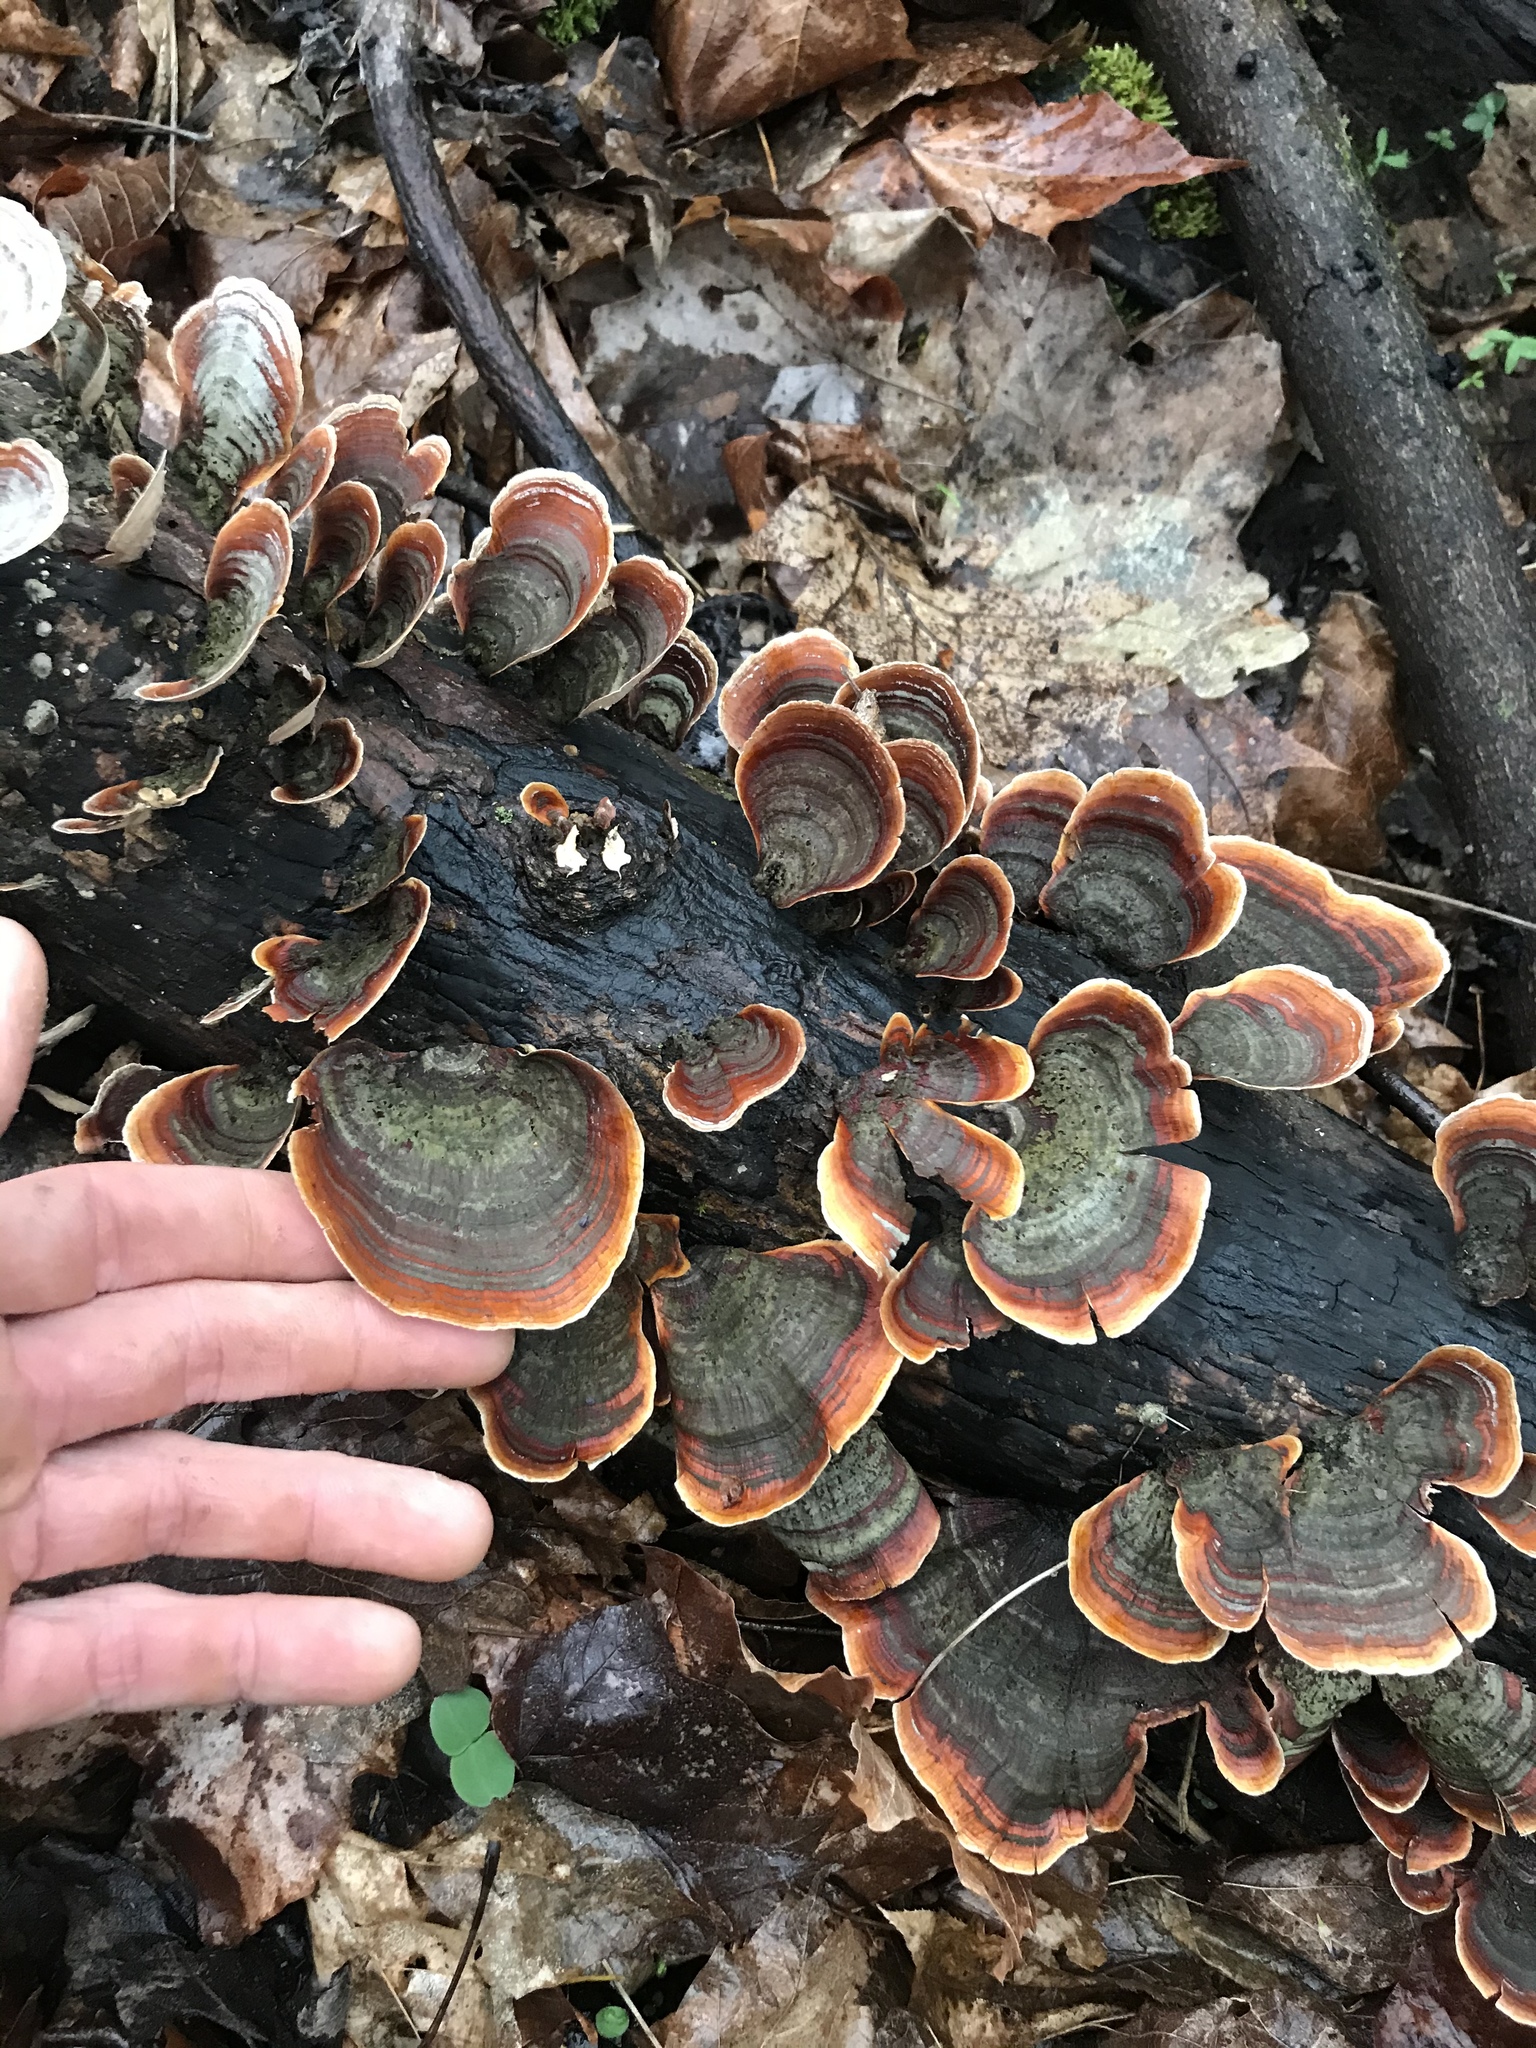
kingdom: Fungi
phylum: Basidiomycota
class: Agaricomycetes
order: Russulales
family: Stereaceae
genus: Stereum
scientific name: Stereum ostrea
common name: False turkeytail
